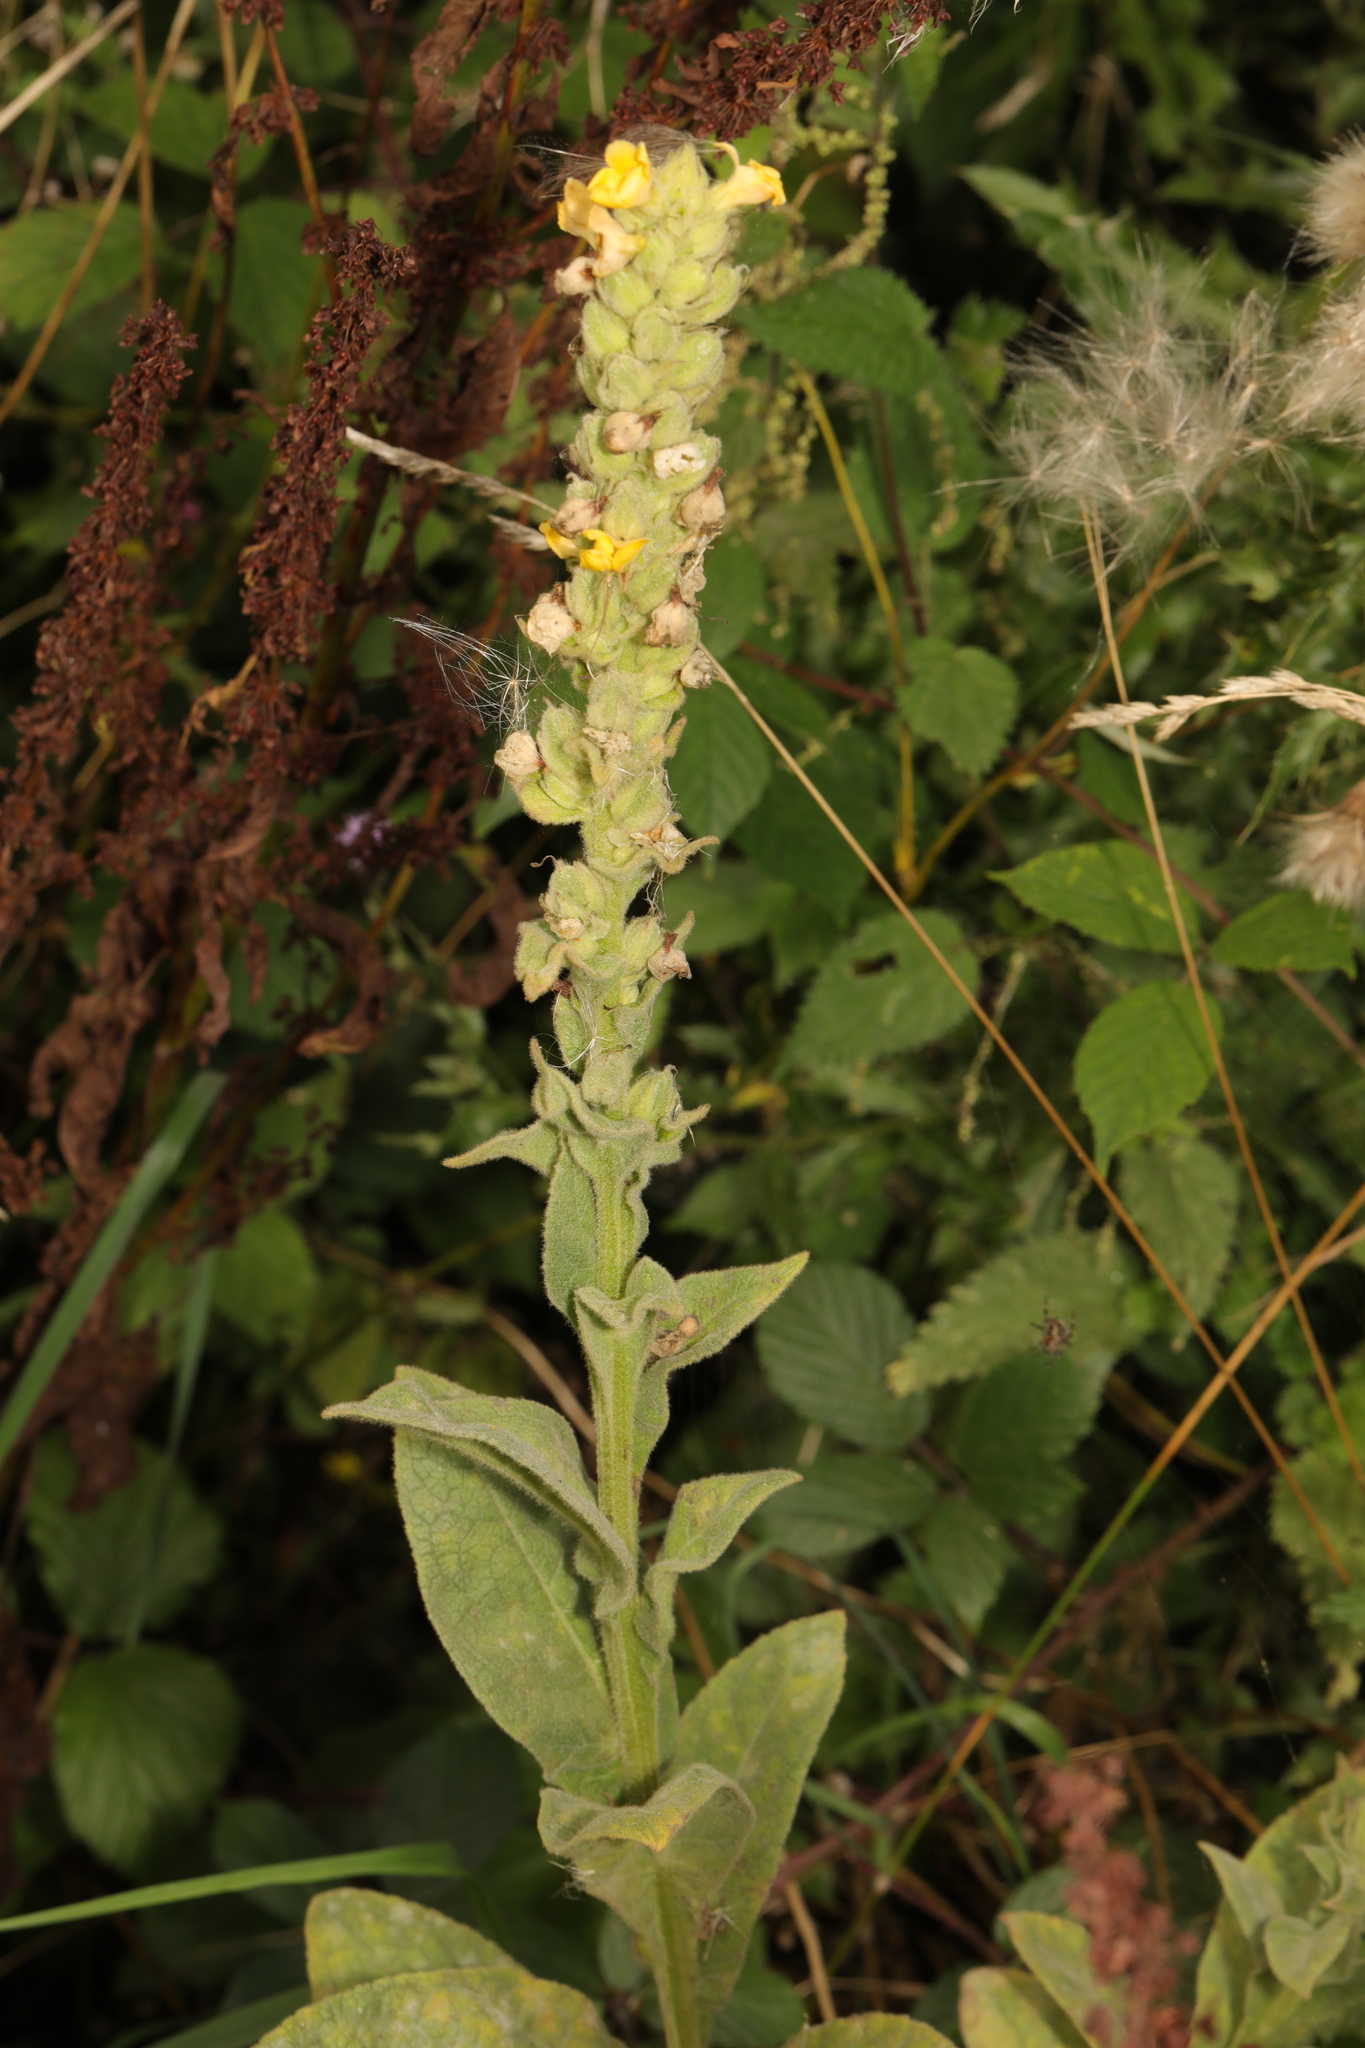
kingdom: Plantae
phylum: Tracheophyta
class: Magnoliopsida
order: Lamiales
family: Scrophulariaceae
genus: Verbascum
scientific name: Verbascum thapsus
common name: Common mullein
